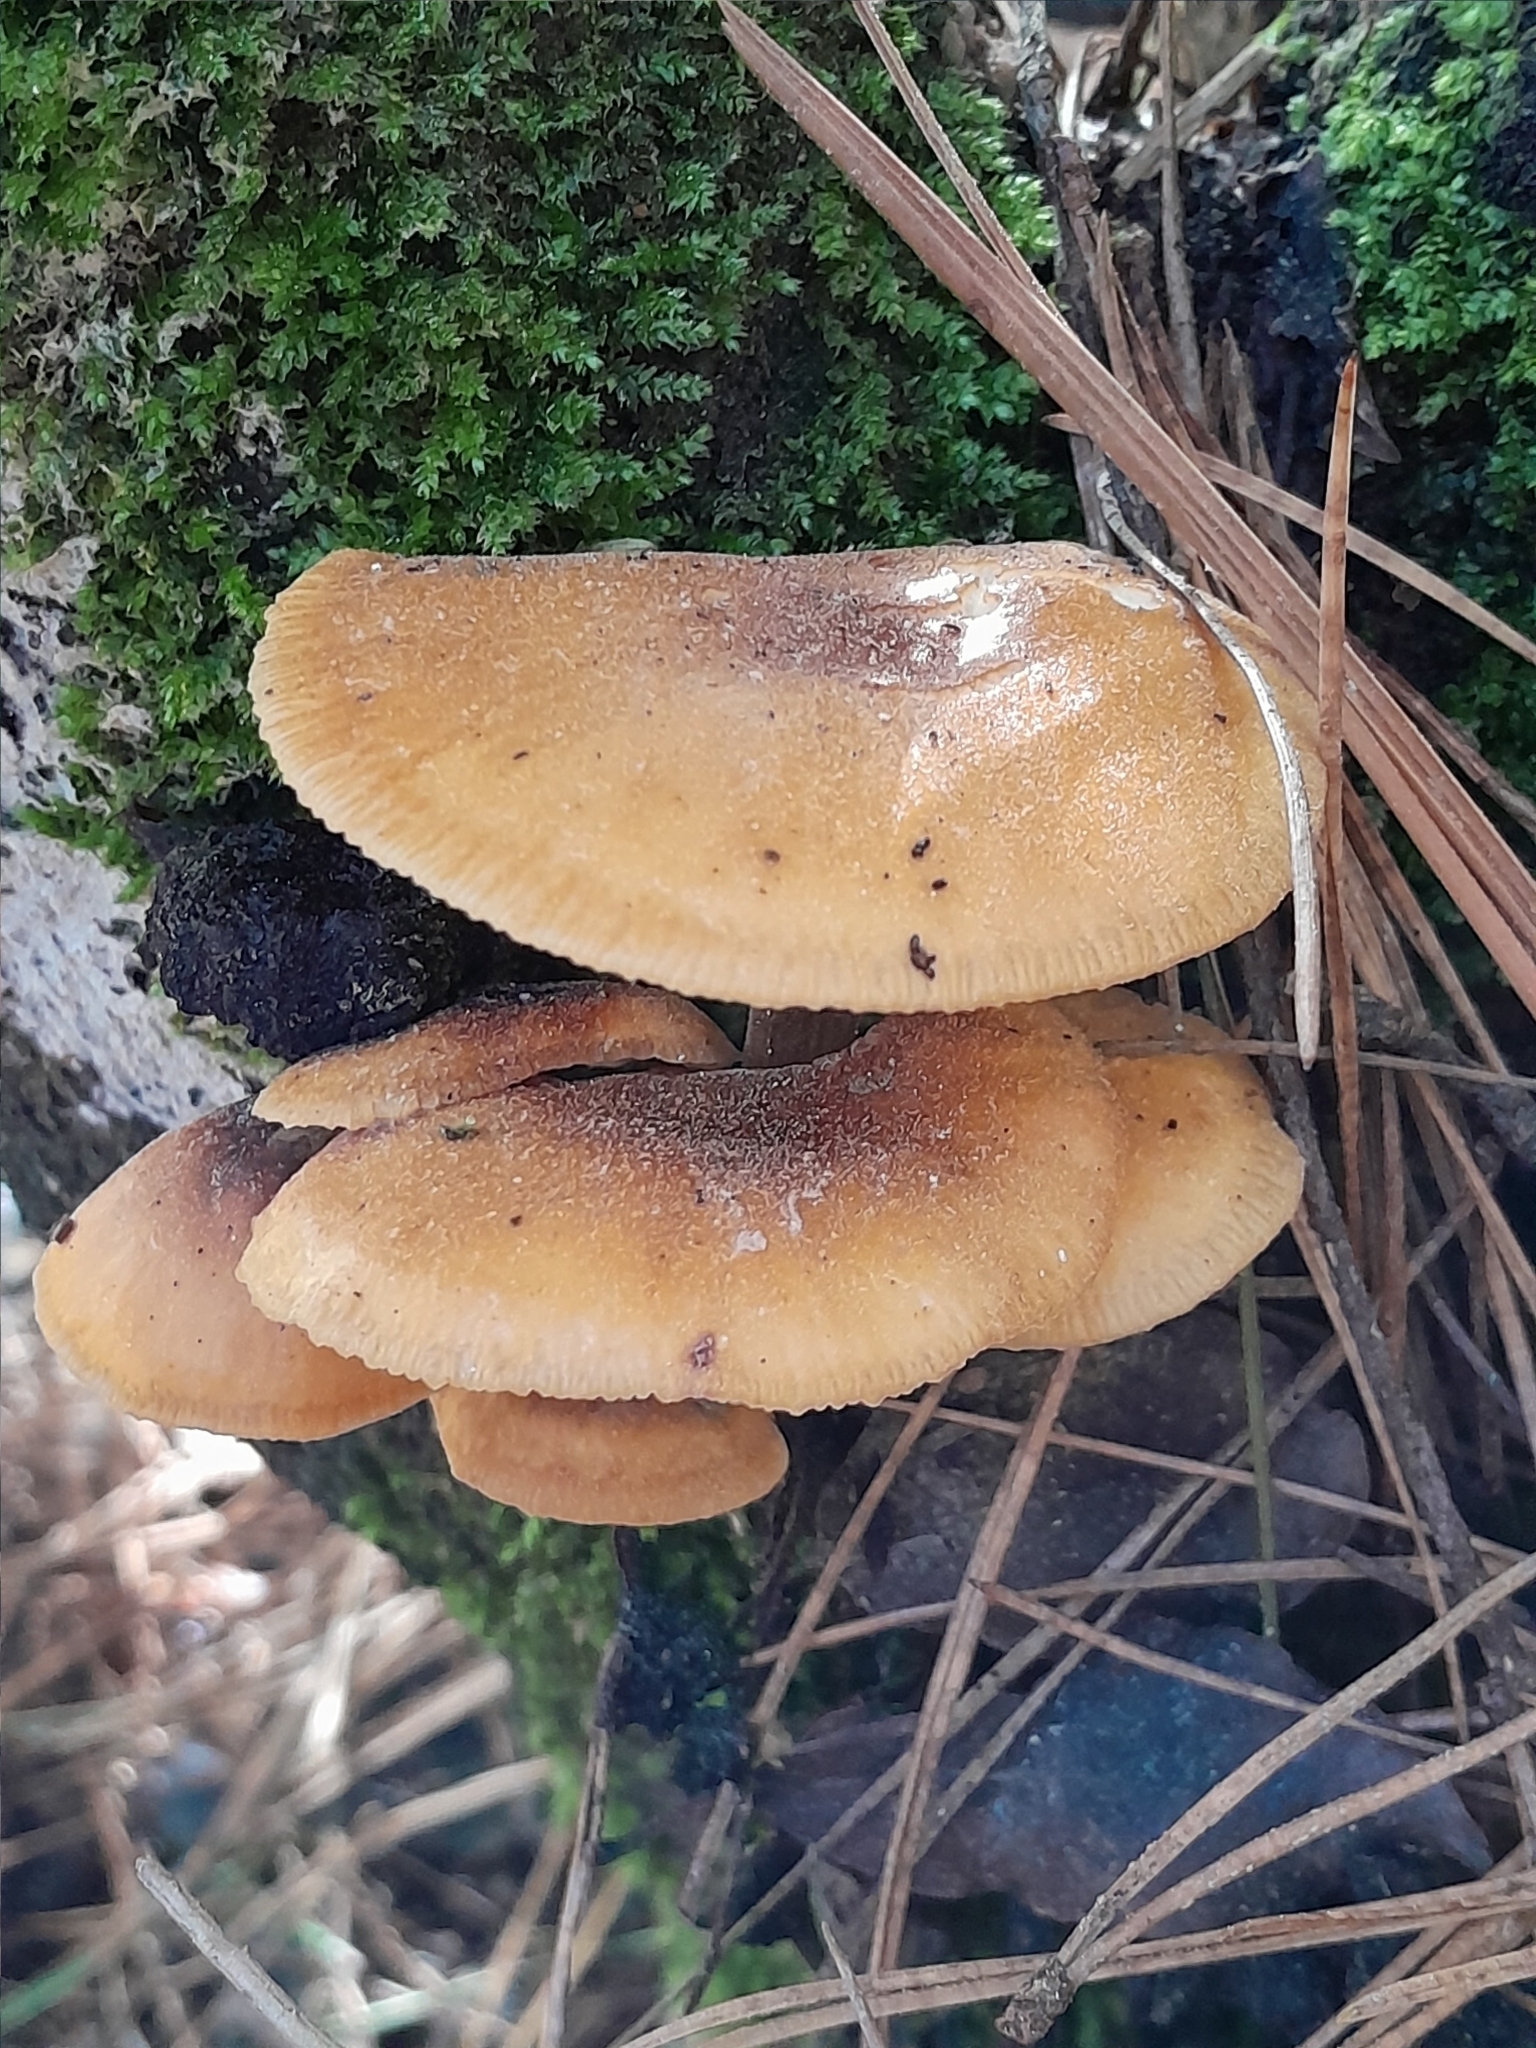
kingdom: Fungi
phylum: Basidiomycota
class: Agaricomycetes
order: Agaricales
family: Physalacriaceae
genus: Flammulina
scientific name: Flammulina velutipes
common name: Velvet shank
